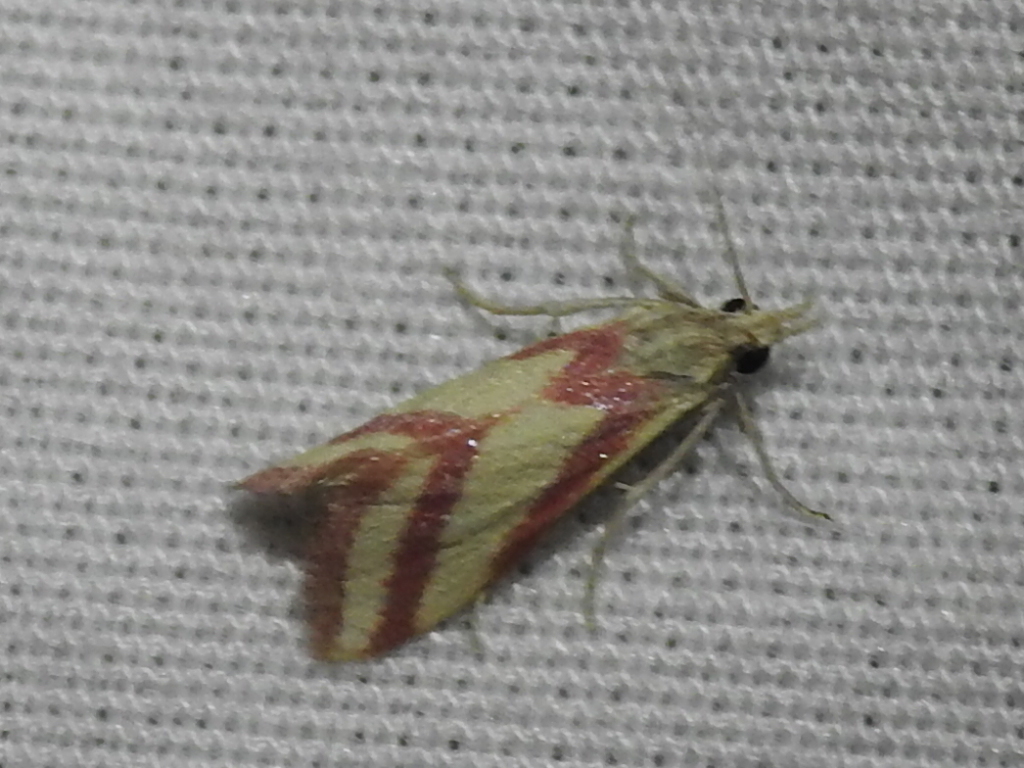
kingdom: Animalia
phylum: Arthropoda
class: Insecta
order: Lepidoptera
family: Crambidae
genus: Microtheoris
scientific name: Microtheoris vibicalis
